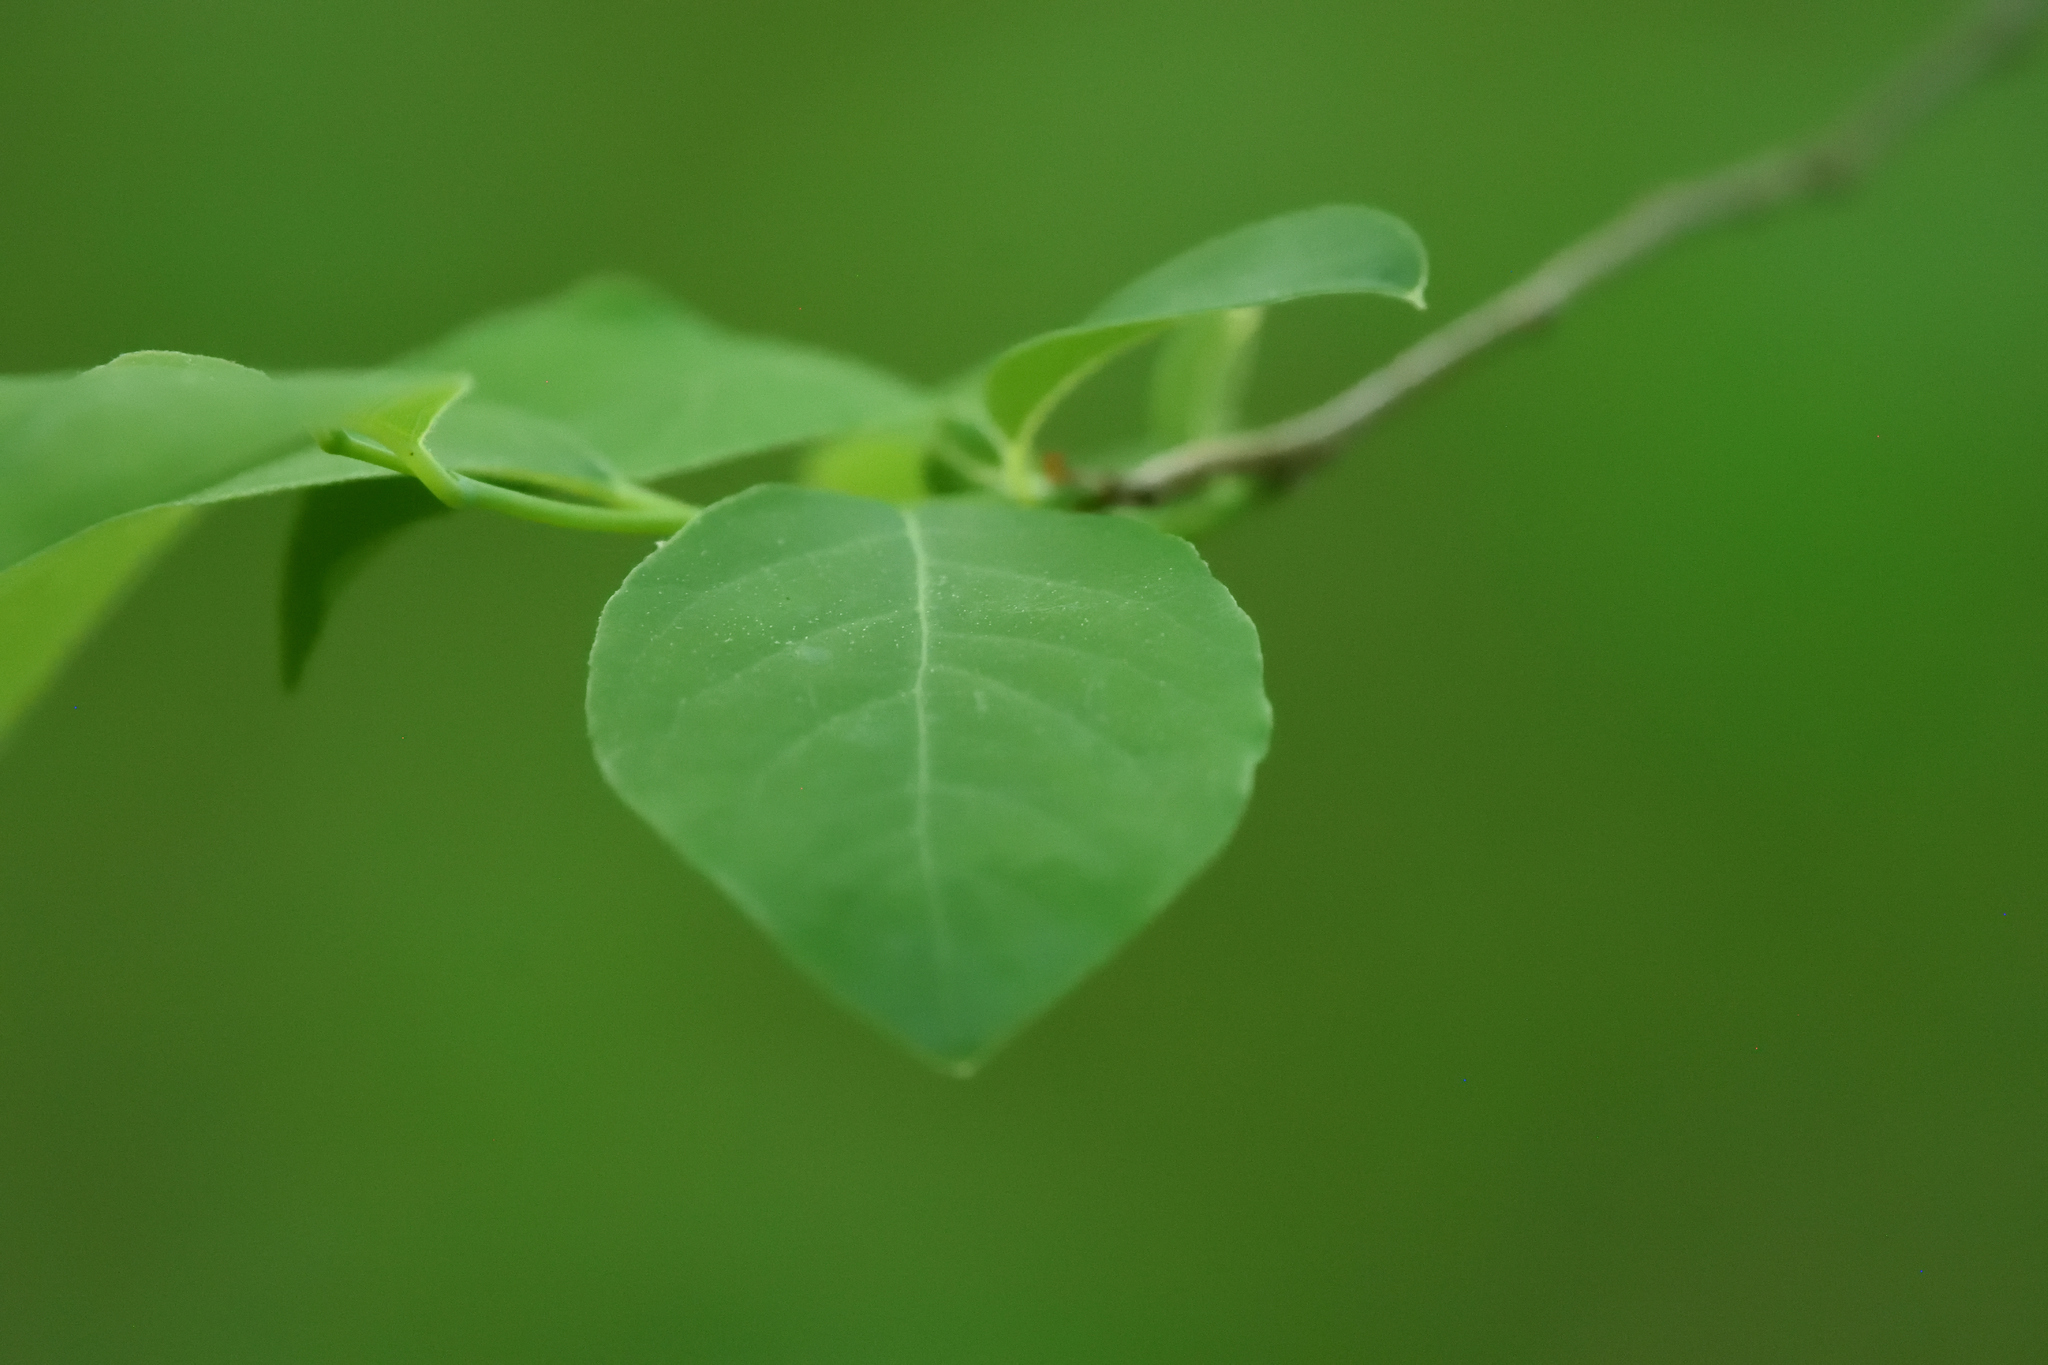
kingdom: Plantae
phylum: Tracheophyta
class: Magnoliopsida
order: Laurales
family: Lauraceae
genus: Lindera
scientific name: Lindera benzoin
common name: Spicebush
